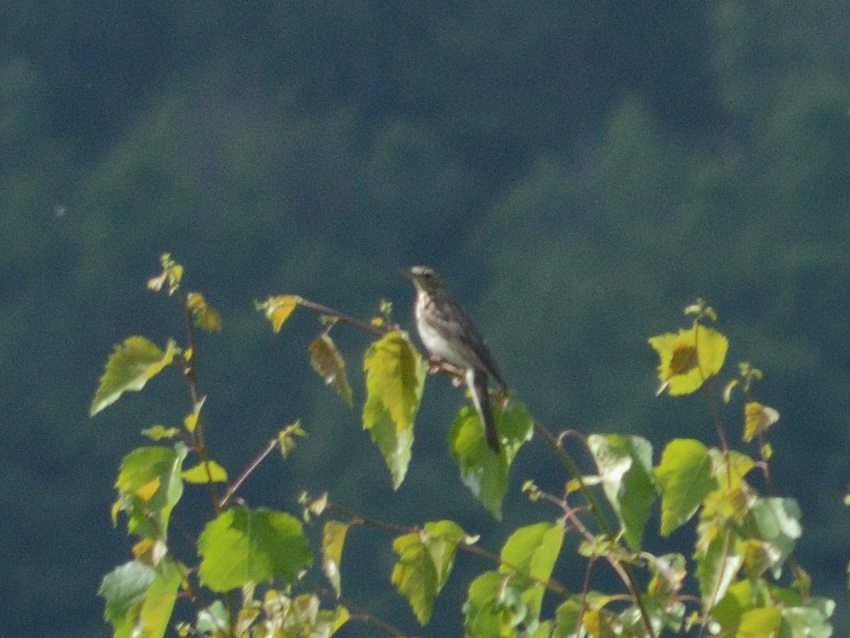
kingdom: Animalia
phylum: Chordata
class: Aves
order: Passeriformes
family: Motacillidae
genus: Anthus
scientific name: Anthus trivialis
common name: Tree pipit
